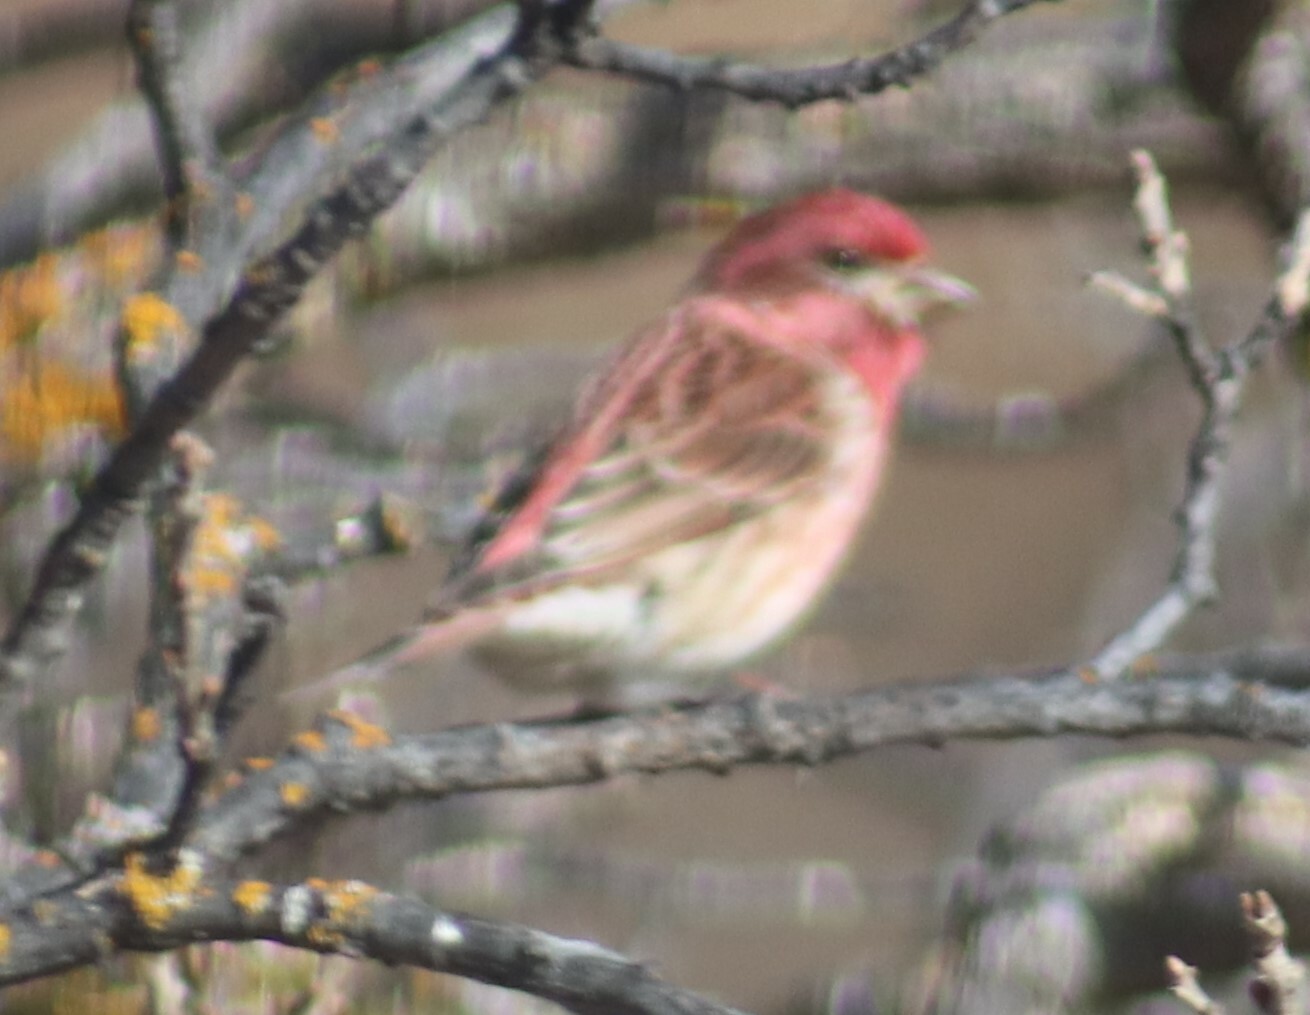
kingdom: Animalia
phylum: Chordata
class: Aves
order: Passeriformes
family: Fringillidae
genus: Haemorhous
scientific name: Haemorhous purpureus
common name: Purple finch
